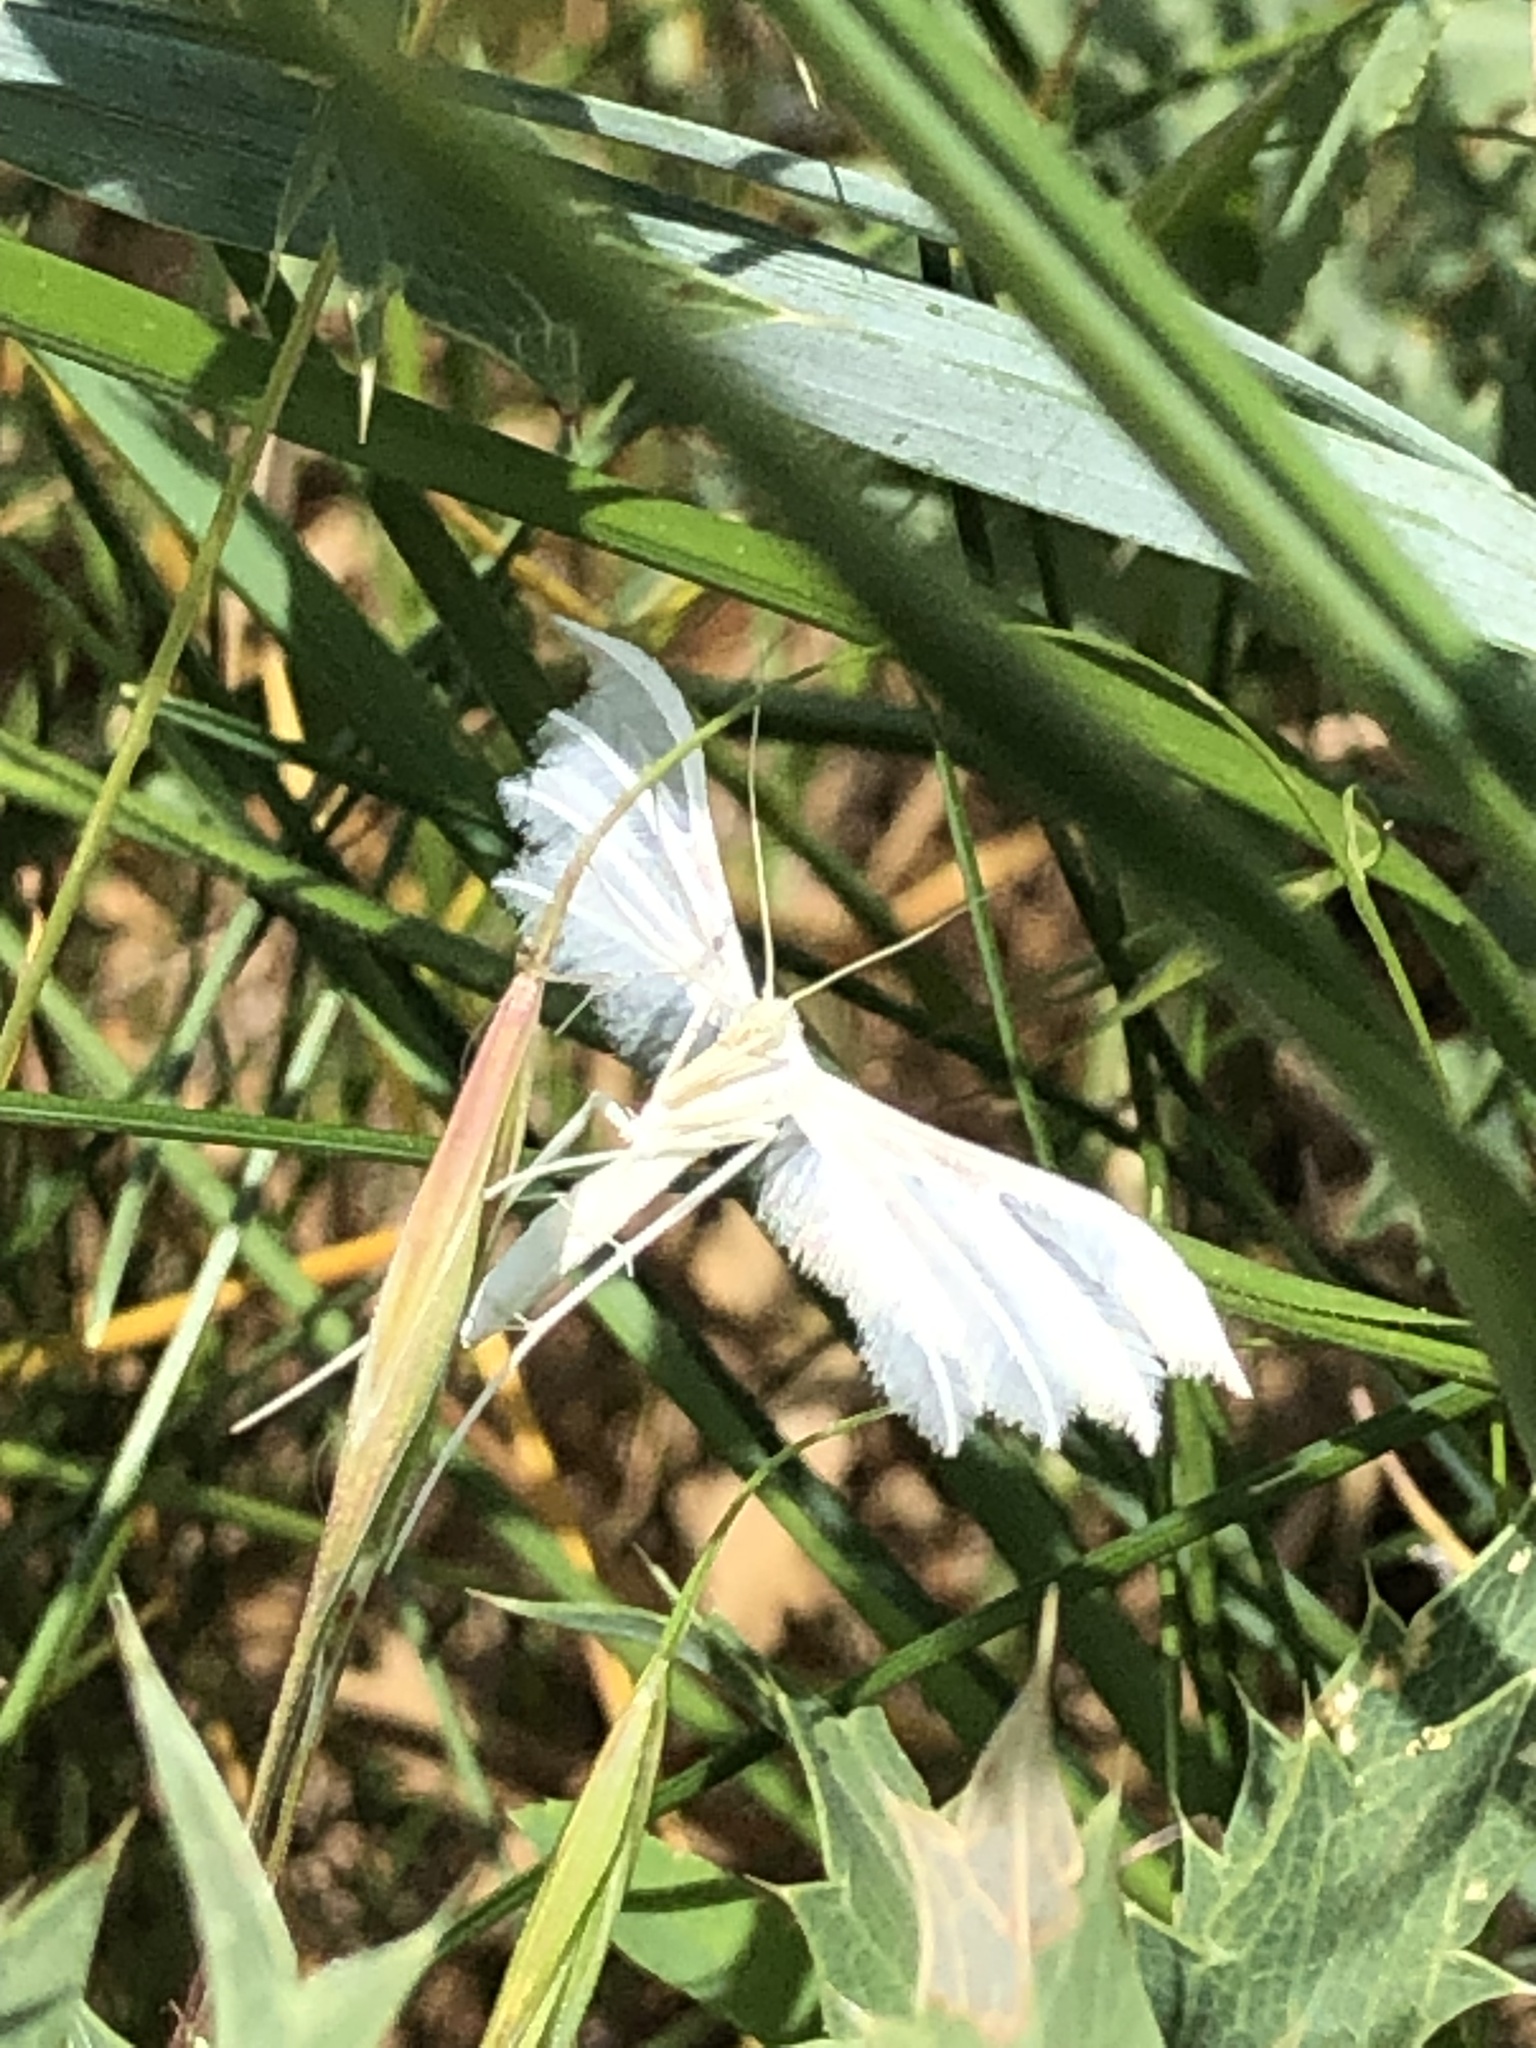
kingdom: Animalia
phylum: Arthropoda
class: Insecta
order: Lepidoptera
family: Pterophoridae
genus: Pterophorus
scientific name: Pterophorus pentadactyla
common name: White plume moth
